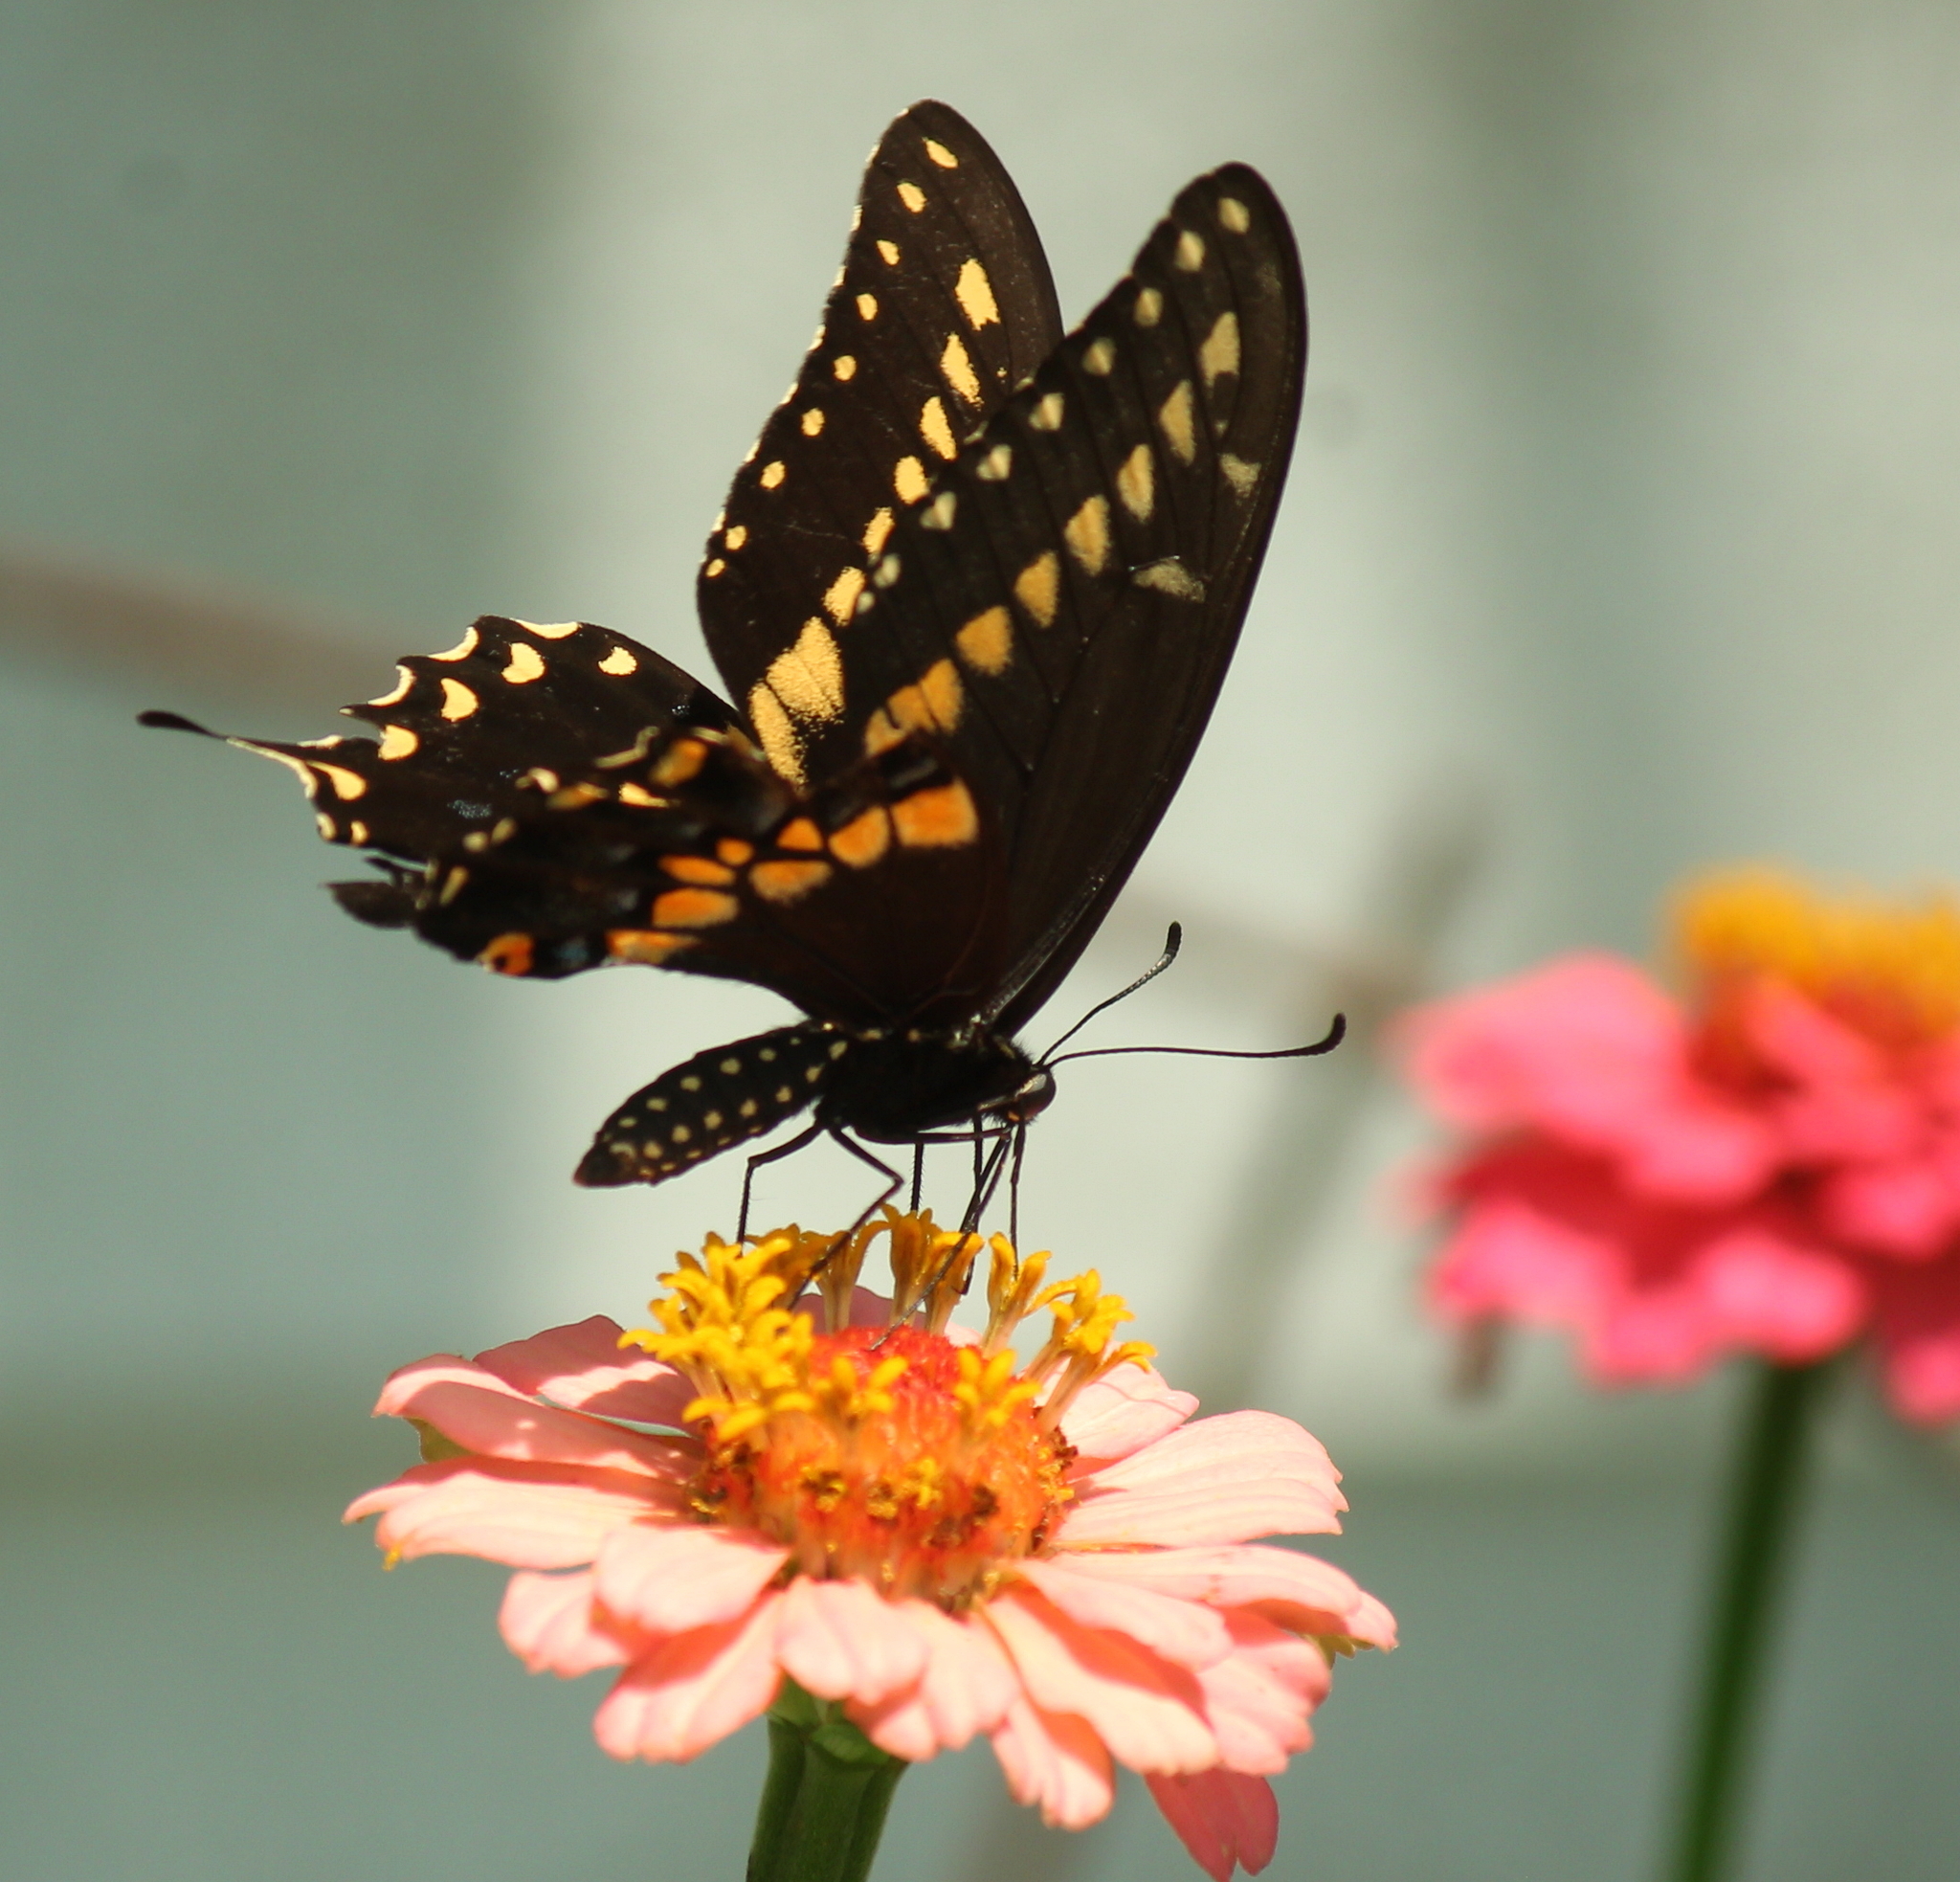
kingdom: Animalia
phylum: Arthropoda
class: Insecta
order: Lepidoptera
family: Papilionidae
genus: Papilio
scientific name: Papilio polyxenes
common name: Black swallowtail
